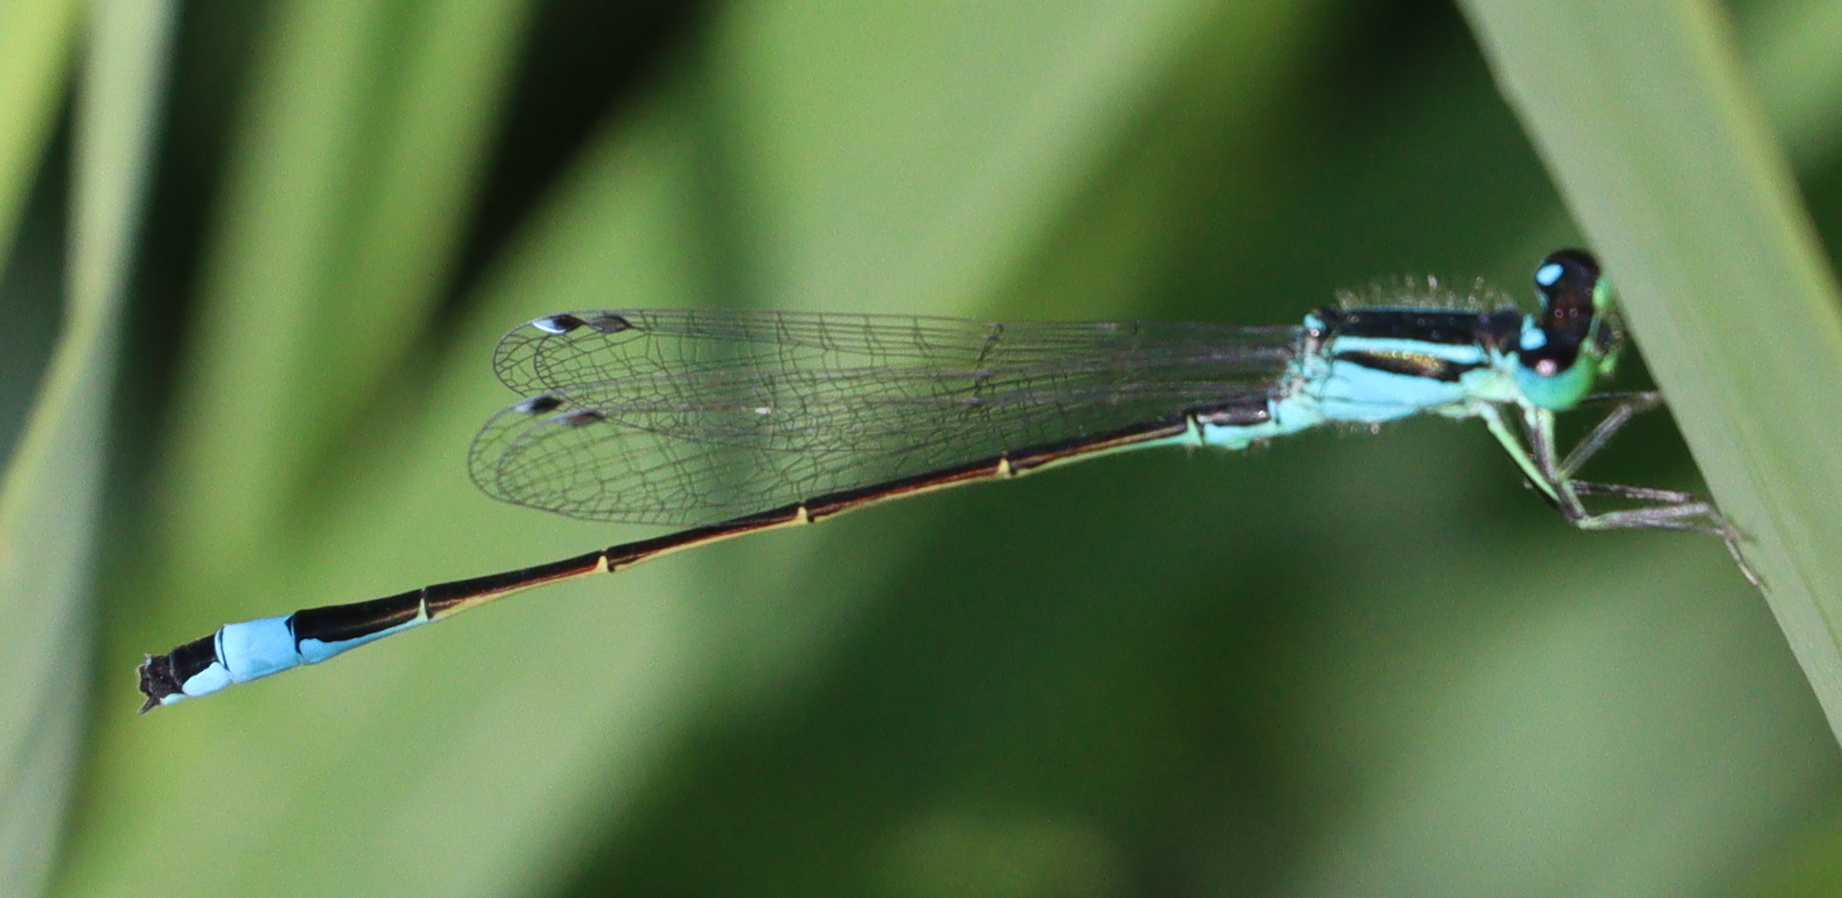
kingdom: Animalia
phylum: Arthropoda
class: Insecta
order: Odonata
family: Coenagrionidae
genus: Ischnura
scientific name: Ischnura elegans
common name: Blue-tailed damselfly
